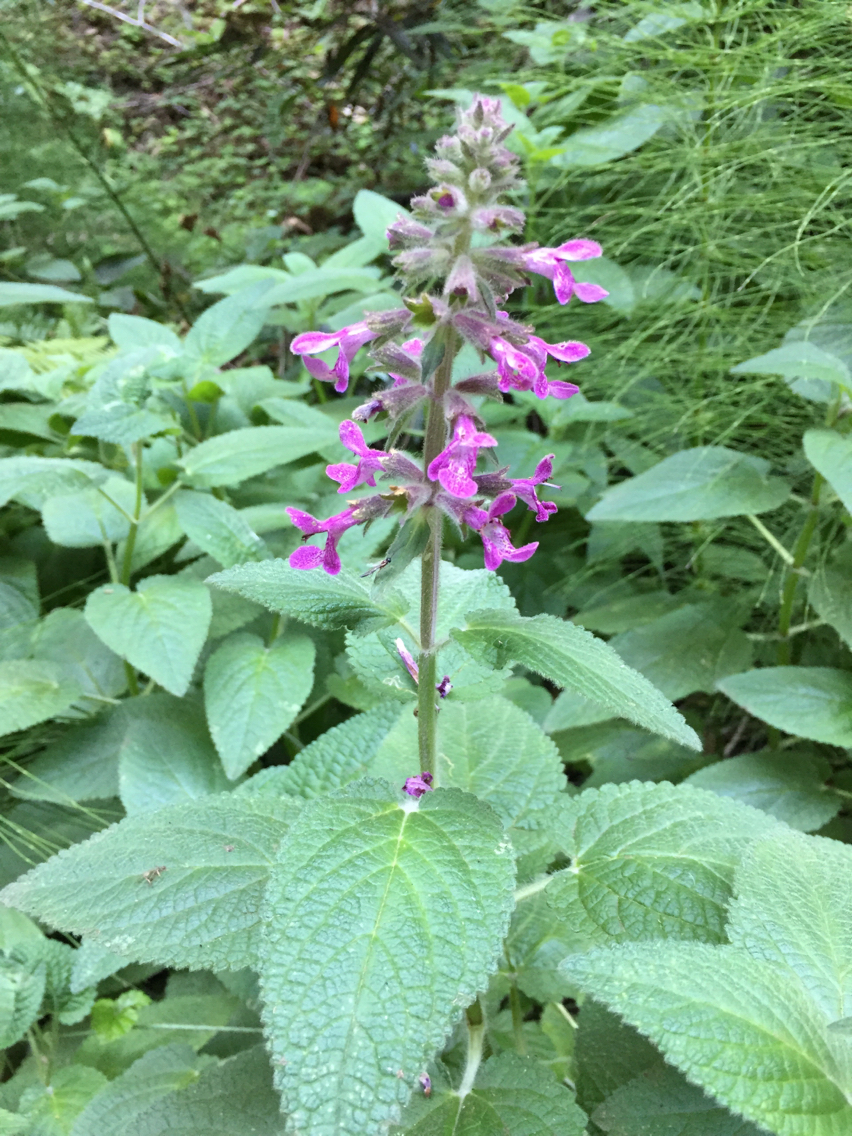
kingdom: Plantae
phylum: Tracheophyta
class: Magnoliopsida
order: Lamiales
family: Lamiaceae
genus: Stachys
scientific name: Stachys chamissonis
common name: Coastal hedge-nettle
